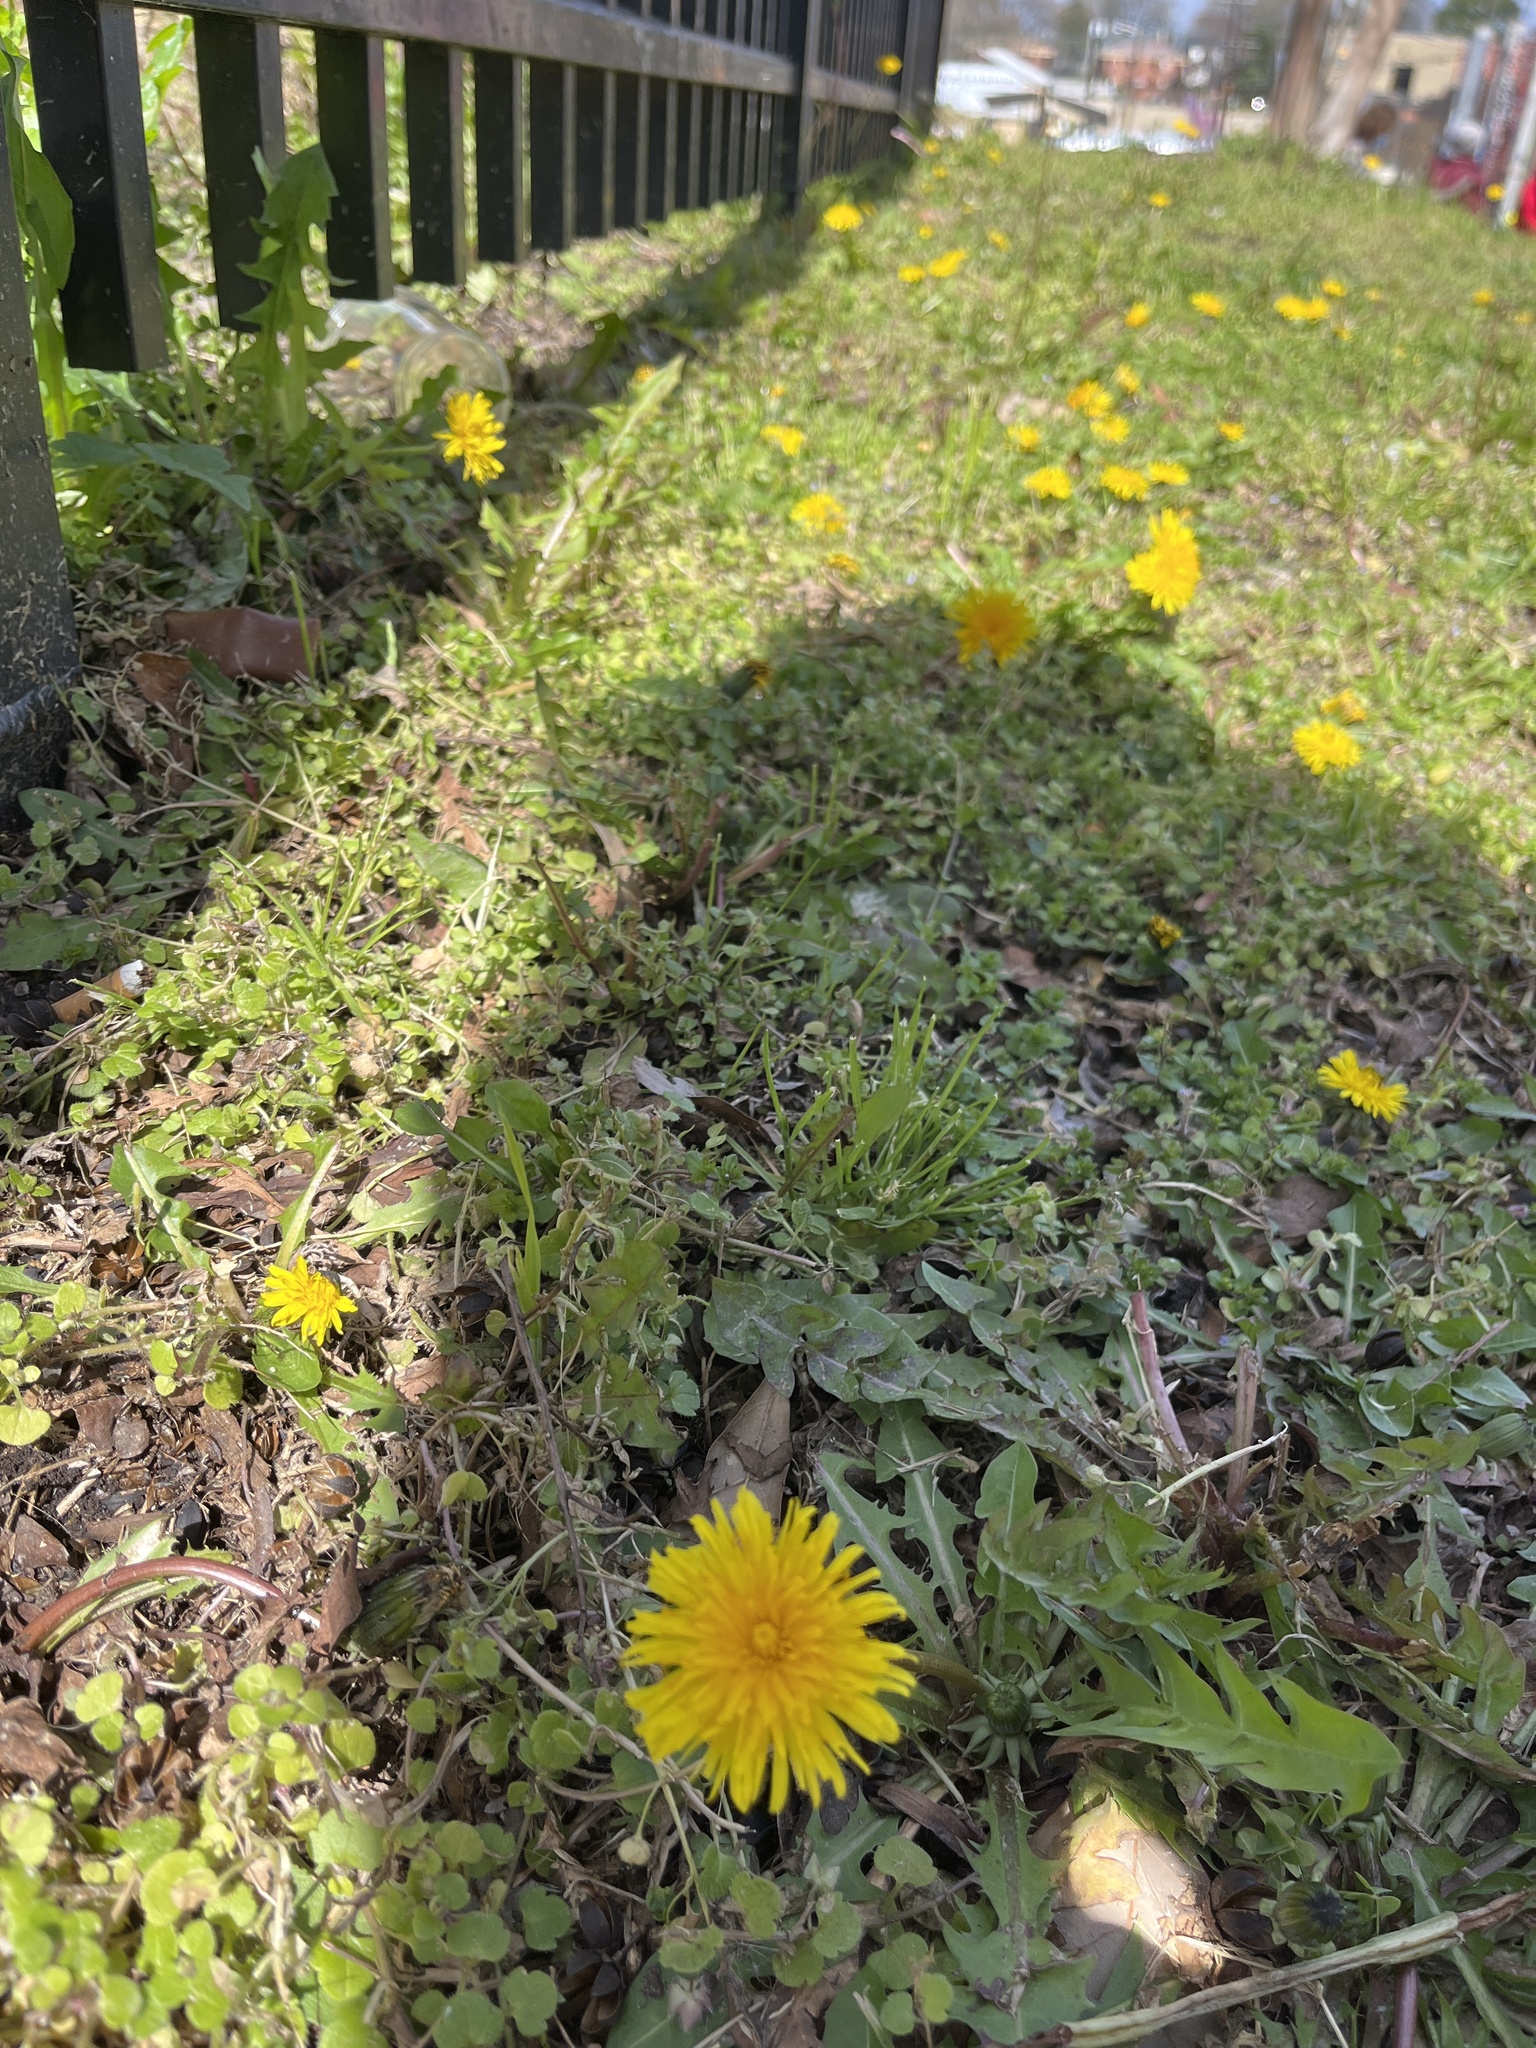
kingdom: Plantae
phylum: Tracheophyta
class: Magnoliopsida
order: Asterales
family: Asteraceae
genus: Taraxacum
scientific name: Taraxacum
